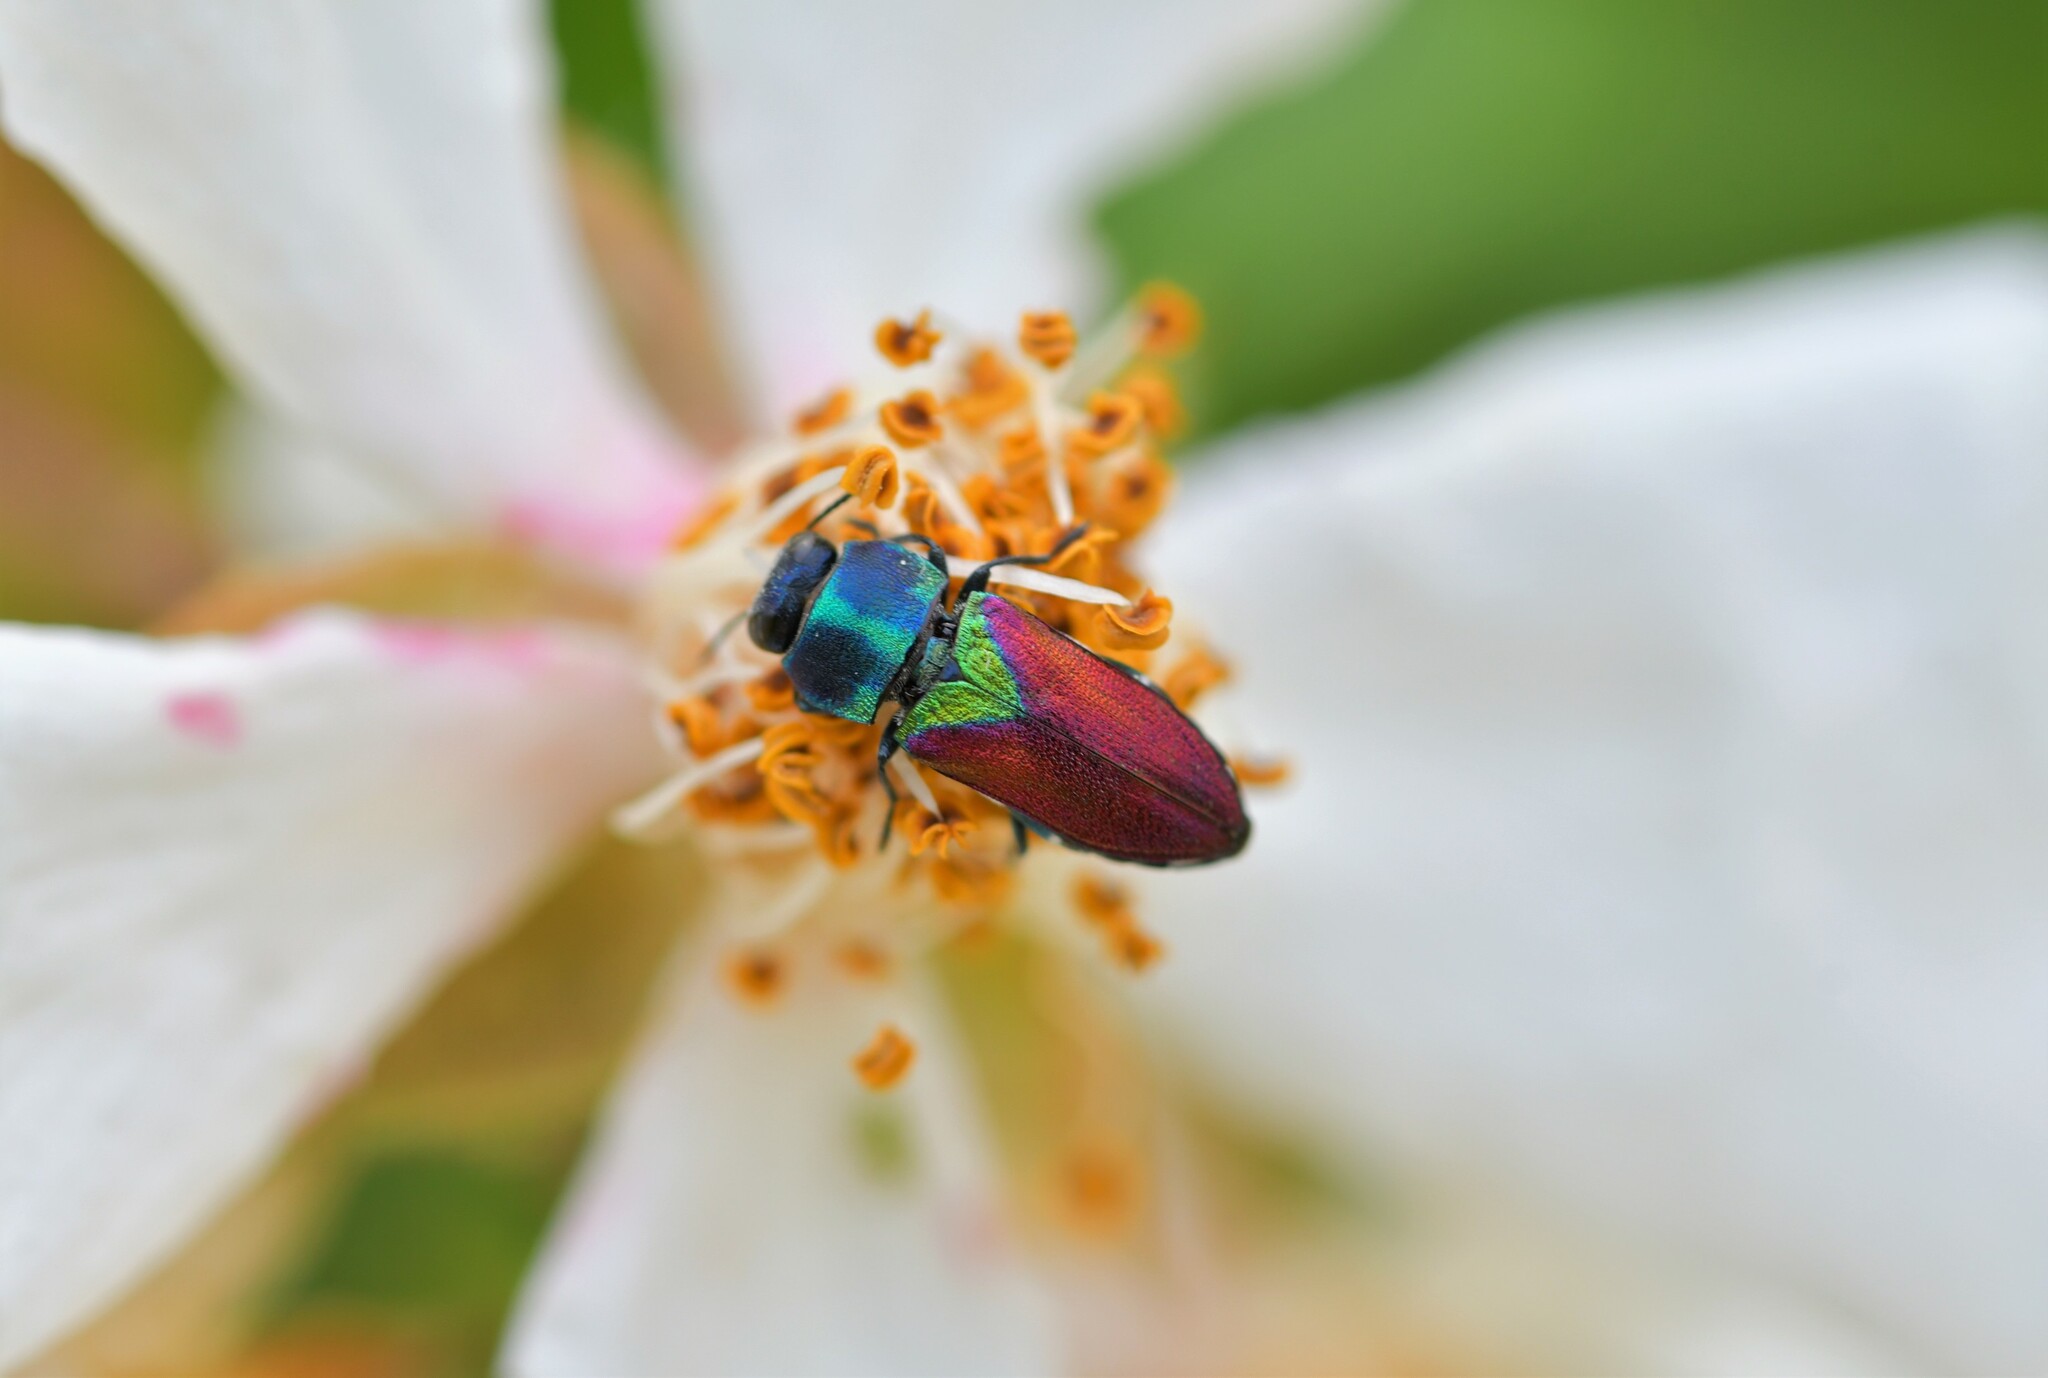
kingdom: Animalia
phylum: Arthropoda
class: Insecta
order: Coleoptera
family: Buprestidae
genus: Anthaxia
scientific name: Anthaxia salicis
